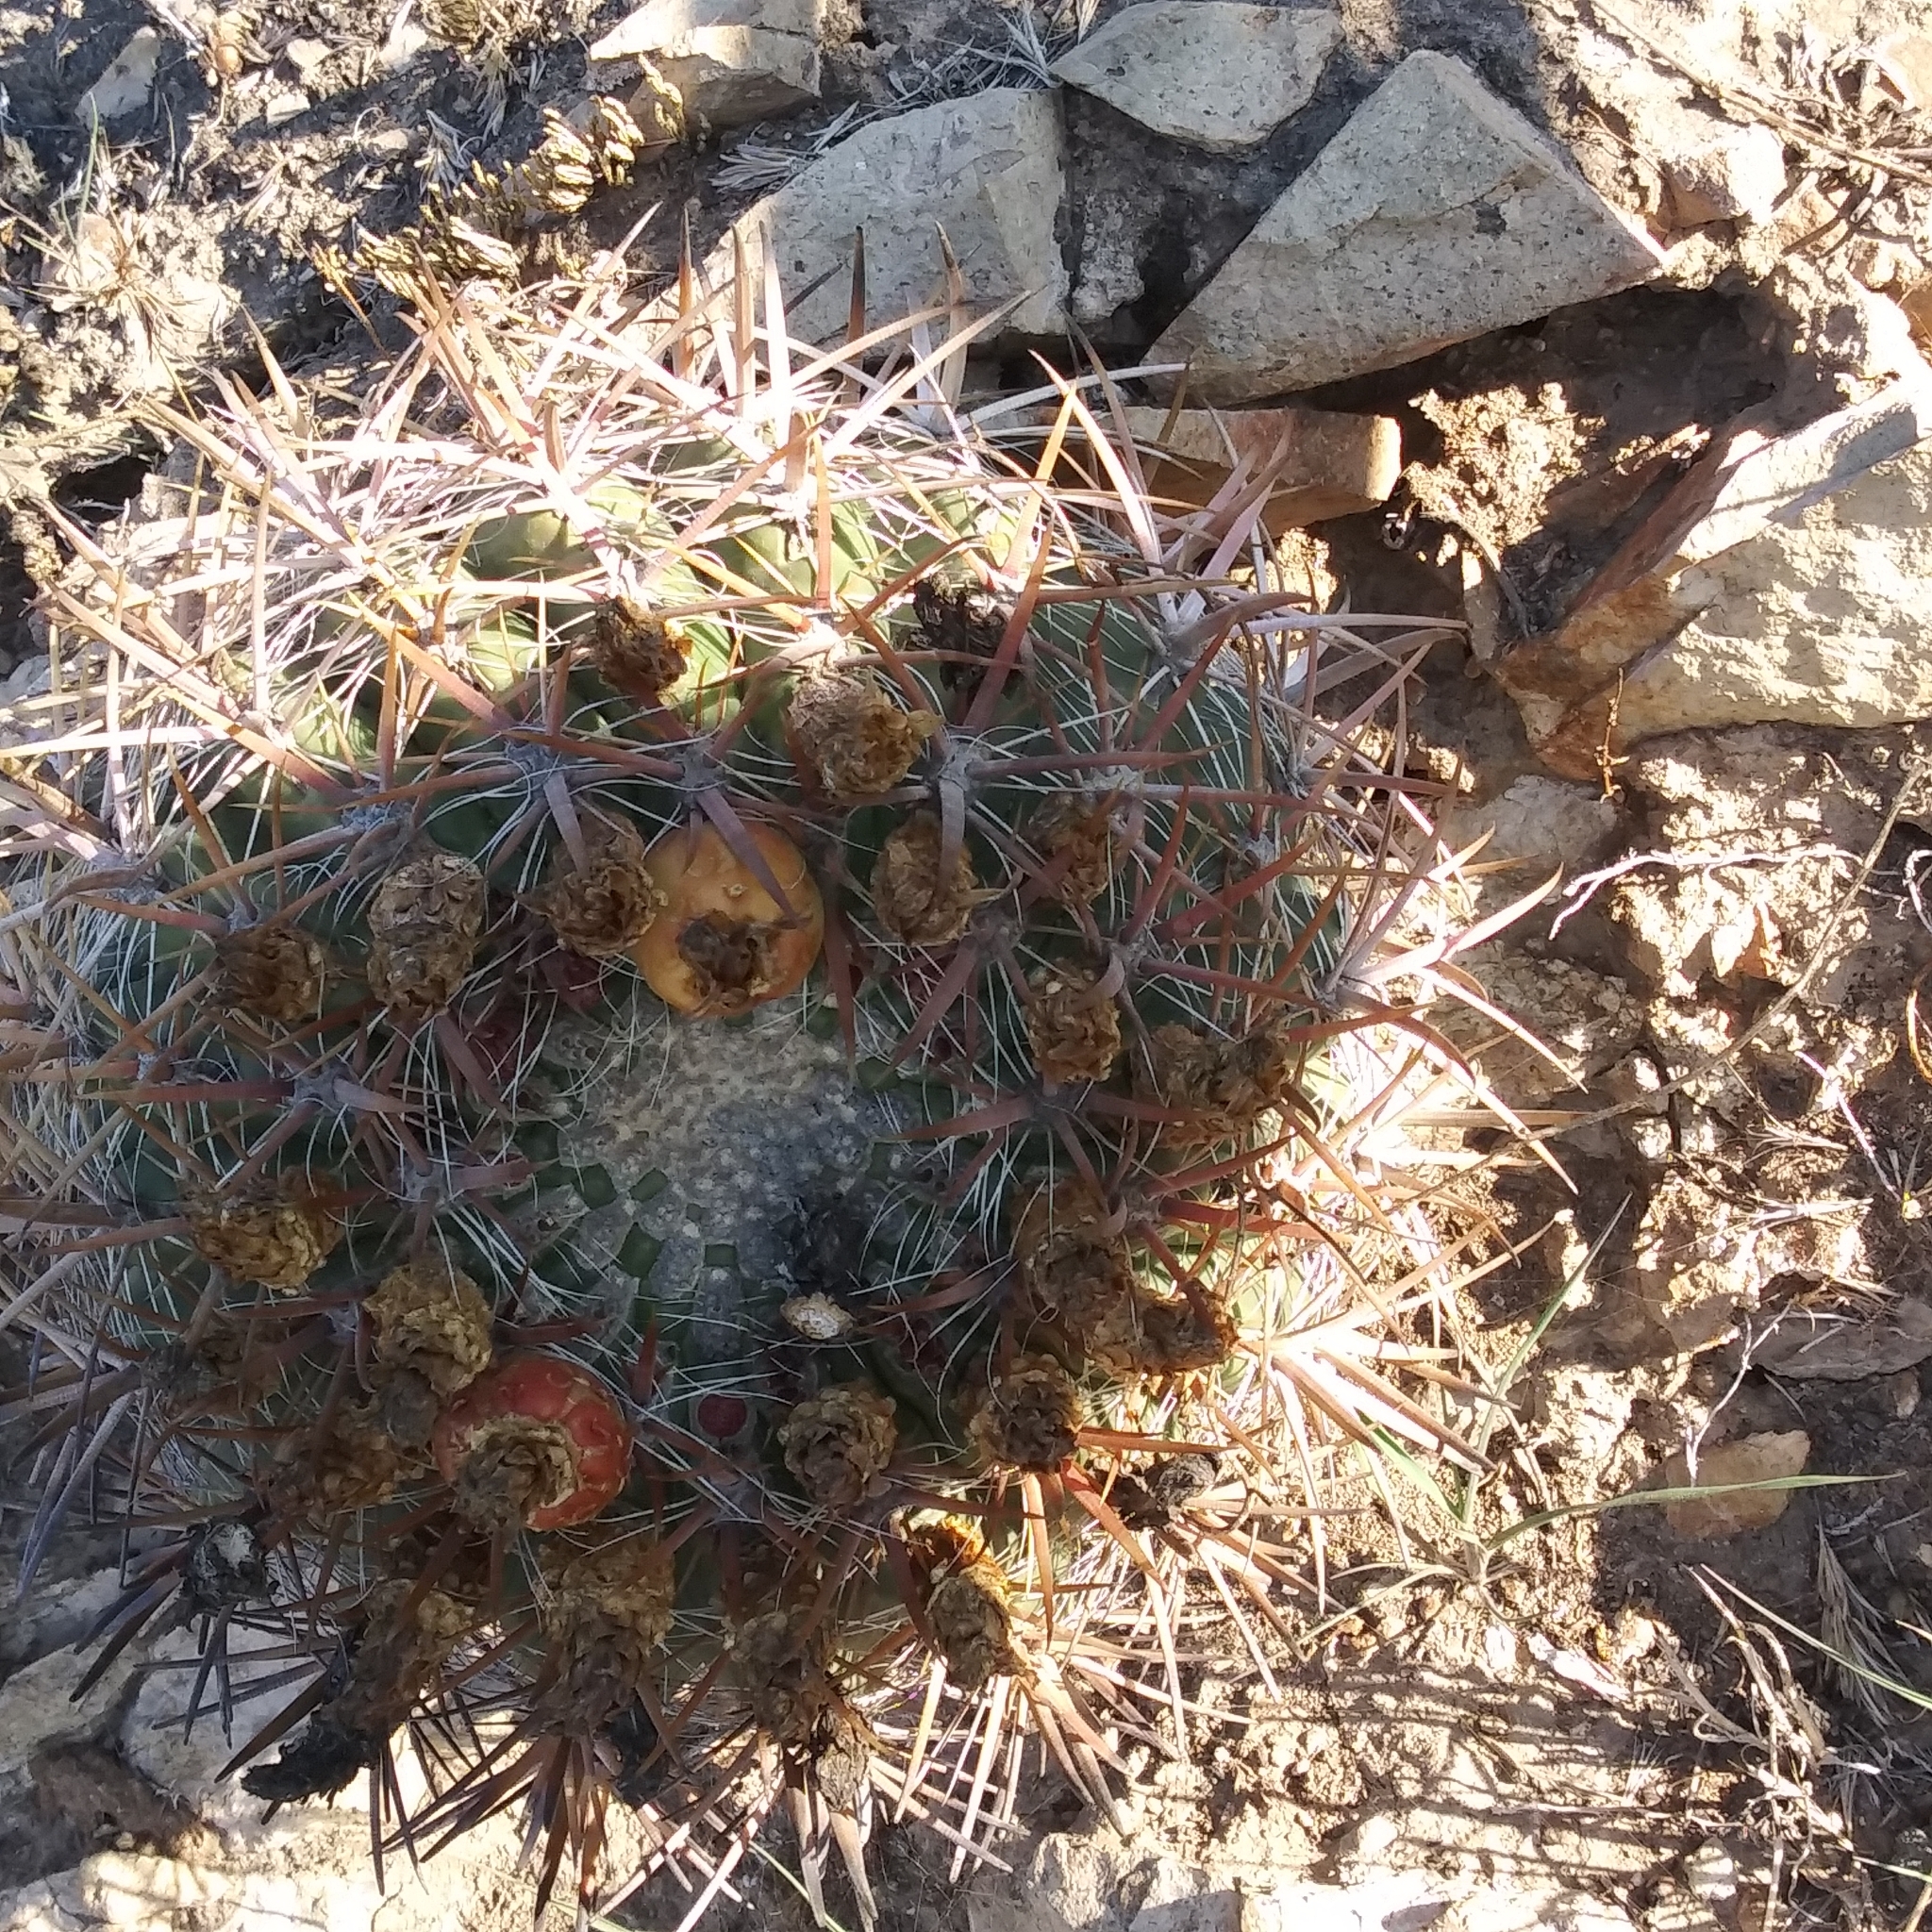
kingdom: Plantae
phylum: Tracheophyta
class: Magnoliopsida
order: Caryophyllales
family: Cactaceae
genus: Ferocactus
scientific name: Ferocactus viridescens
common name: San diego barrel cactus
